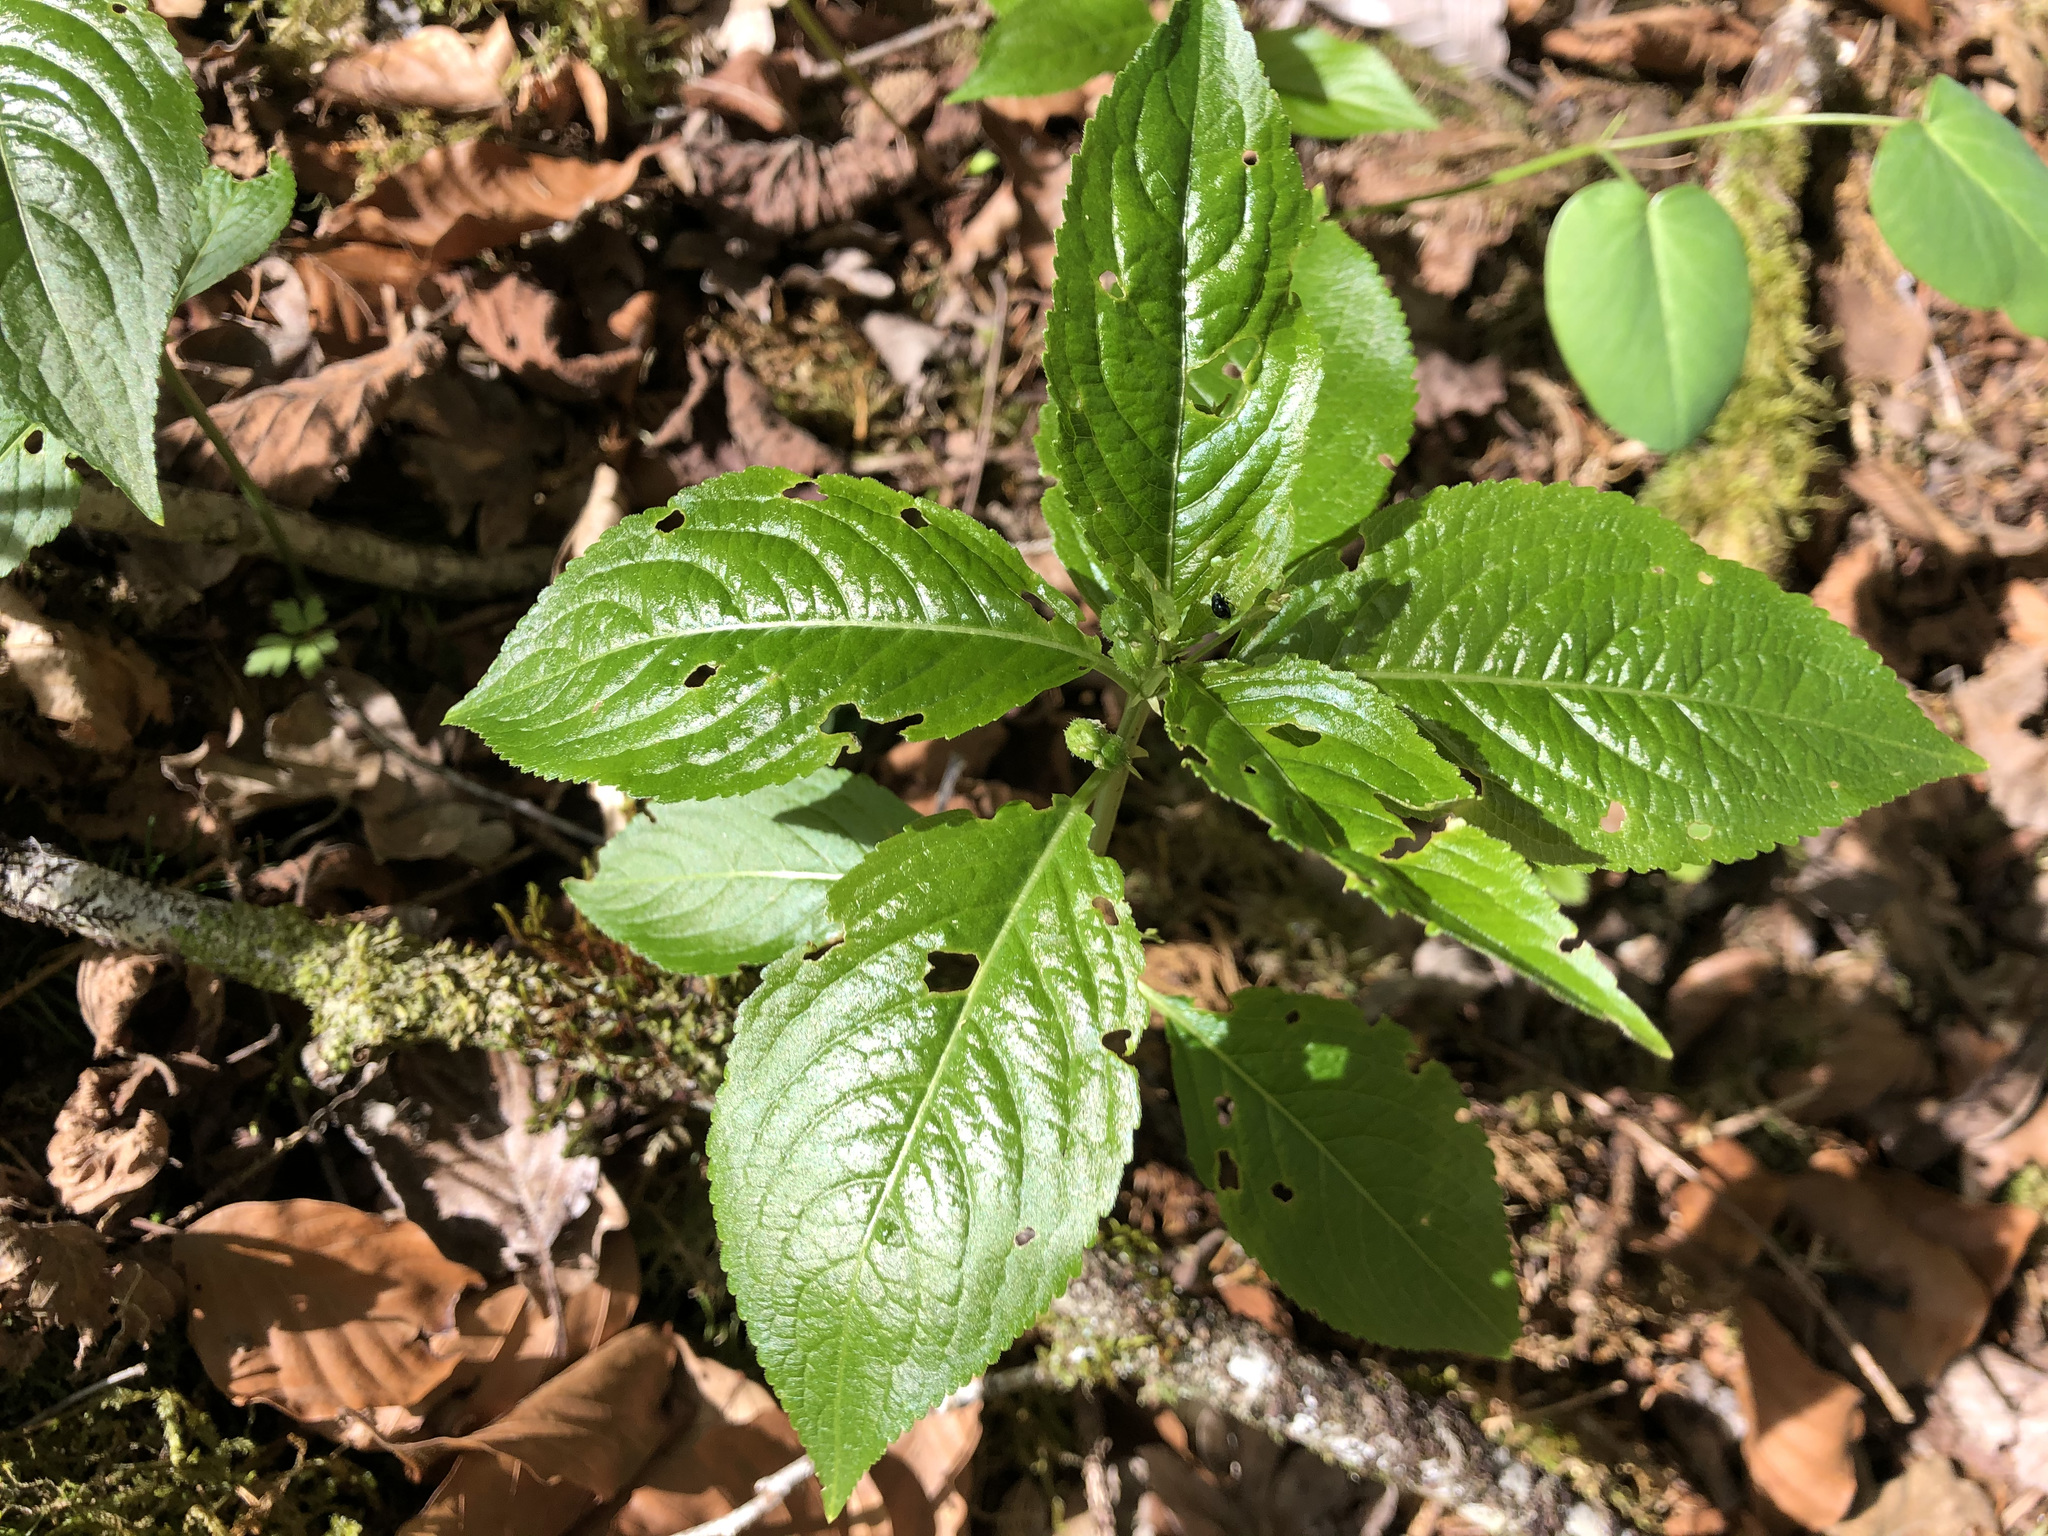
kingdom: Plantae
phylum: Tracheophyta
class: Magnoliopsida
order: Malpighiales
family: Euphorbiaceae
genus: Mercurialis
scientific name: Mercurialis perennis
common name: Dog mercury
